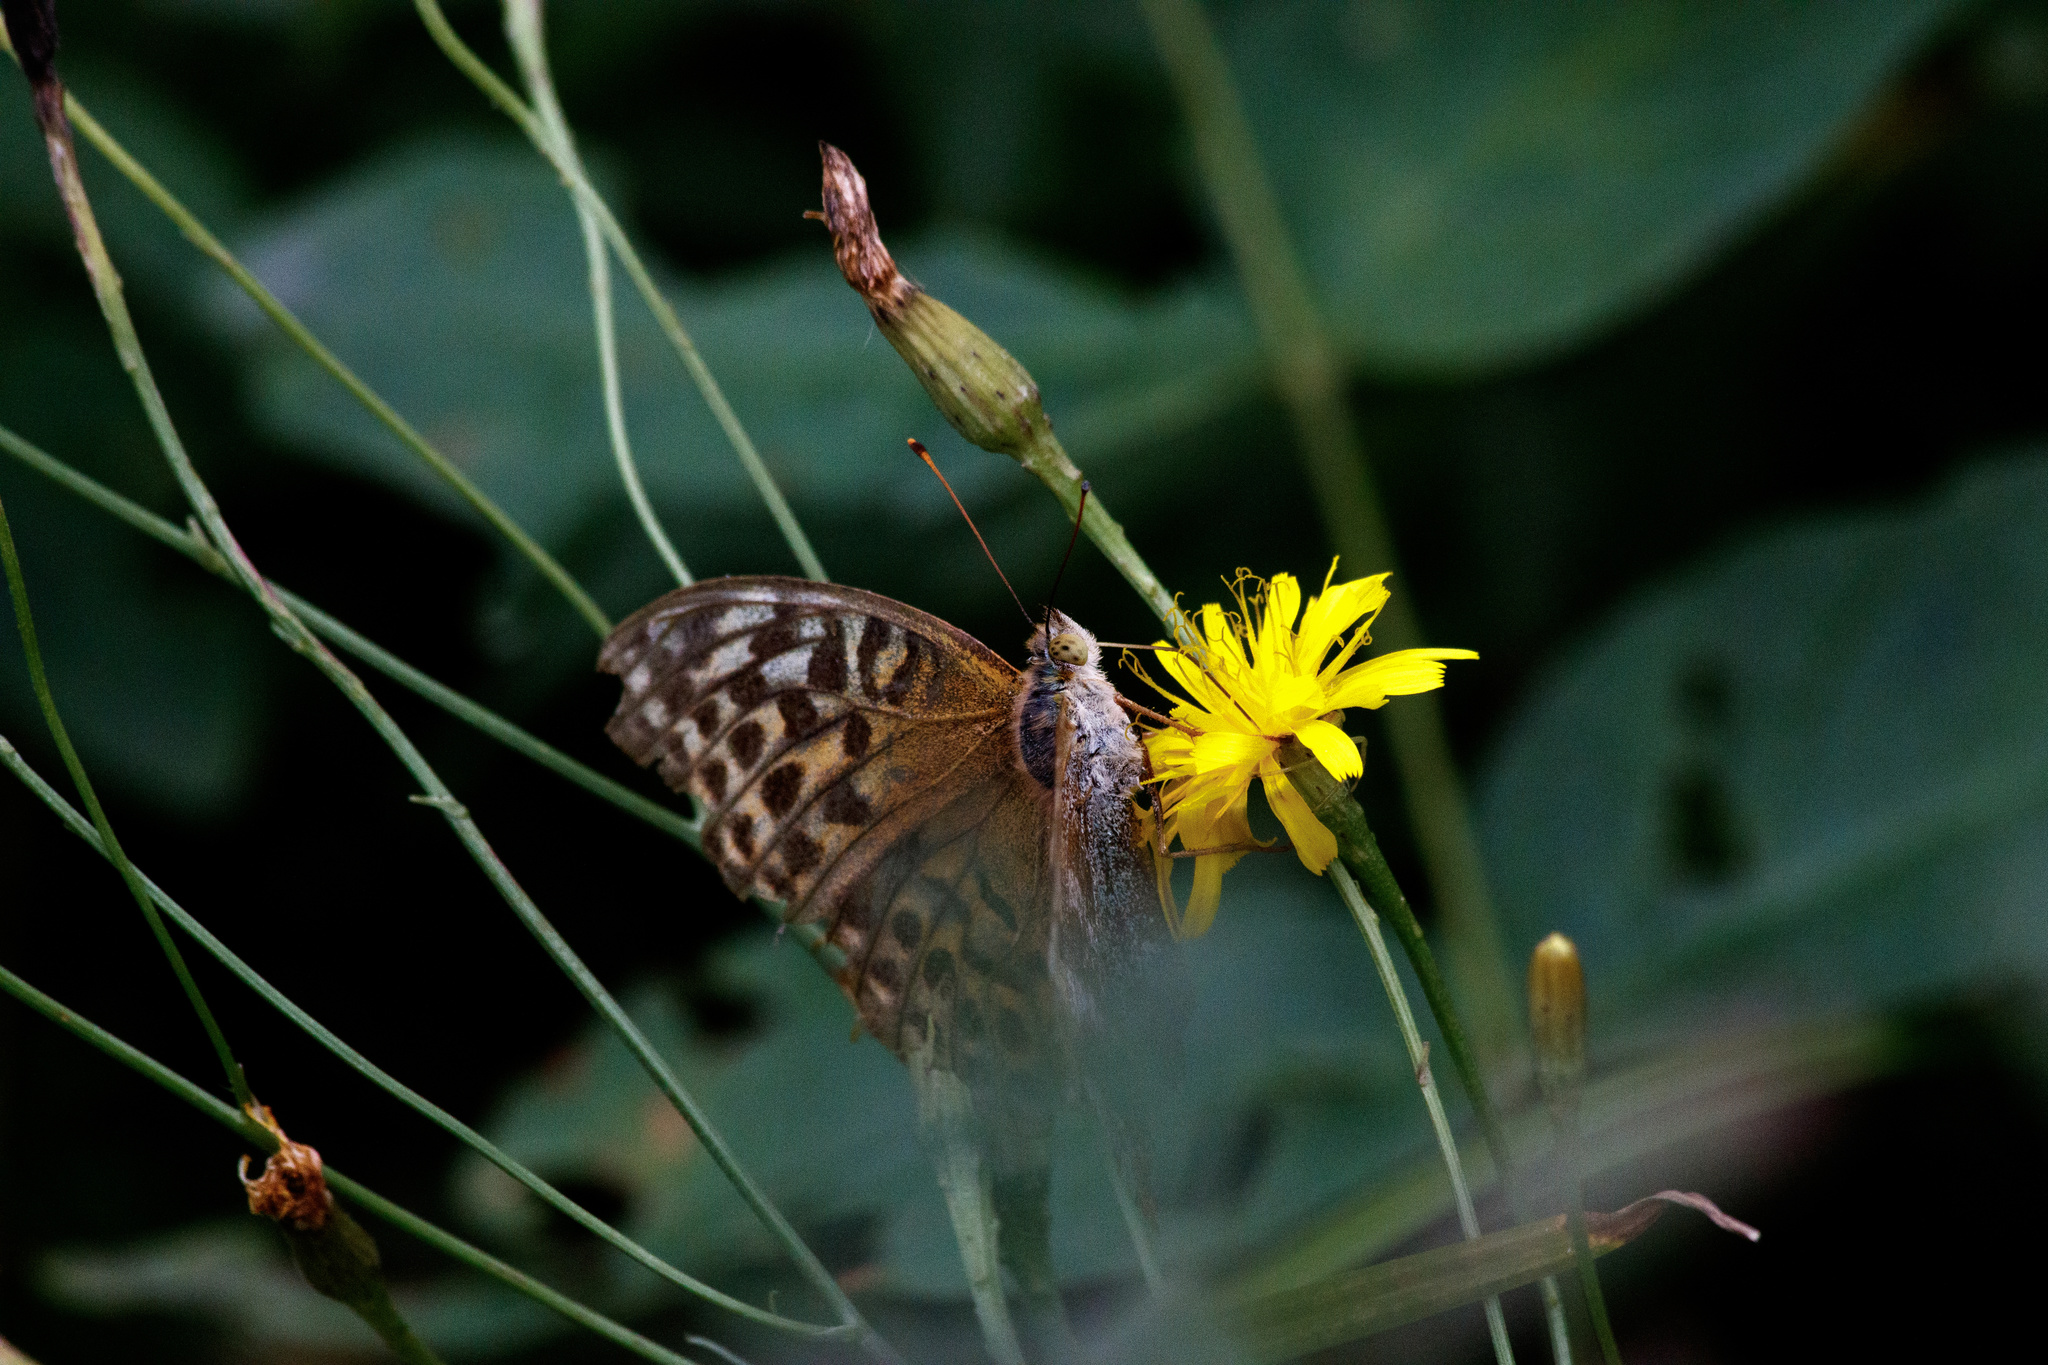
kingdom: Animalia
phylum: Arthropoda
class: Insecta
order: Lepidoptera
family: Nymphalidae
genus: Argynnis
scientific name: Argynnis paphia
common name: Silver-washed fritillary
